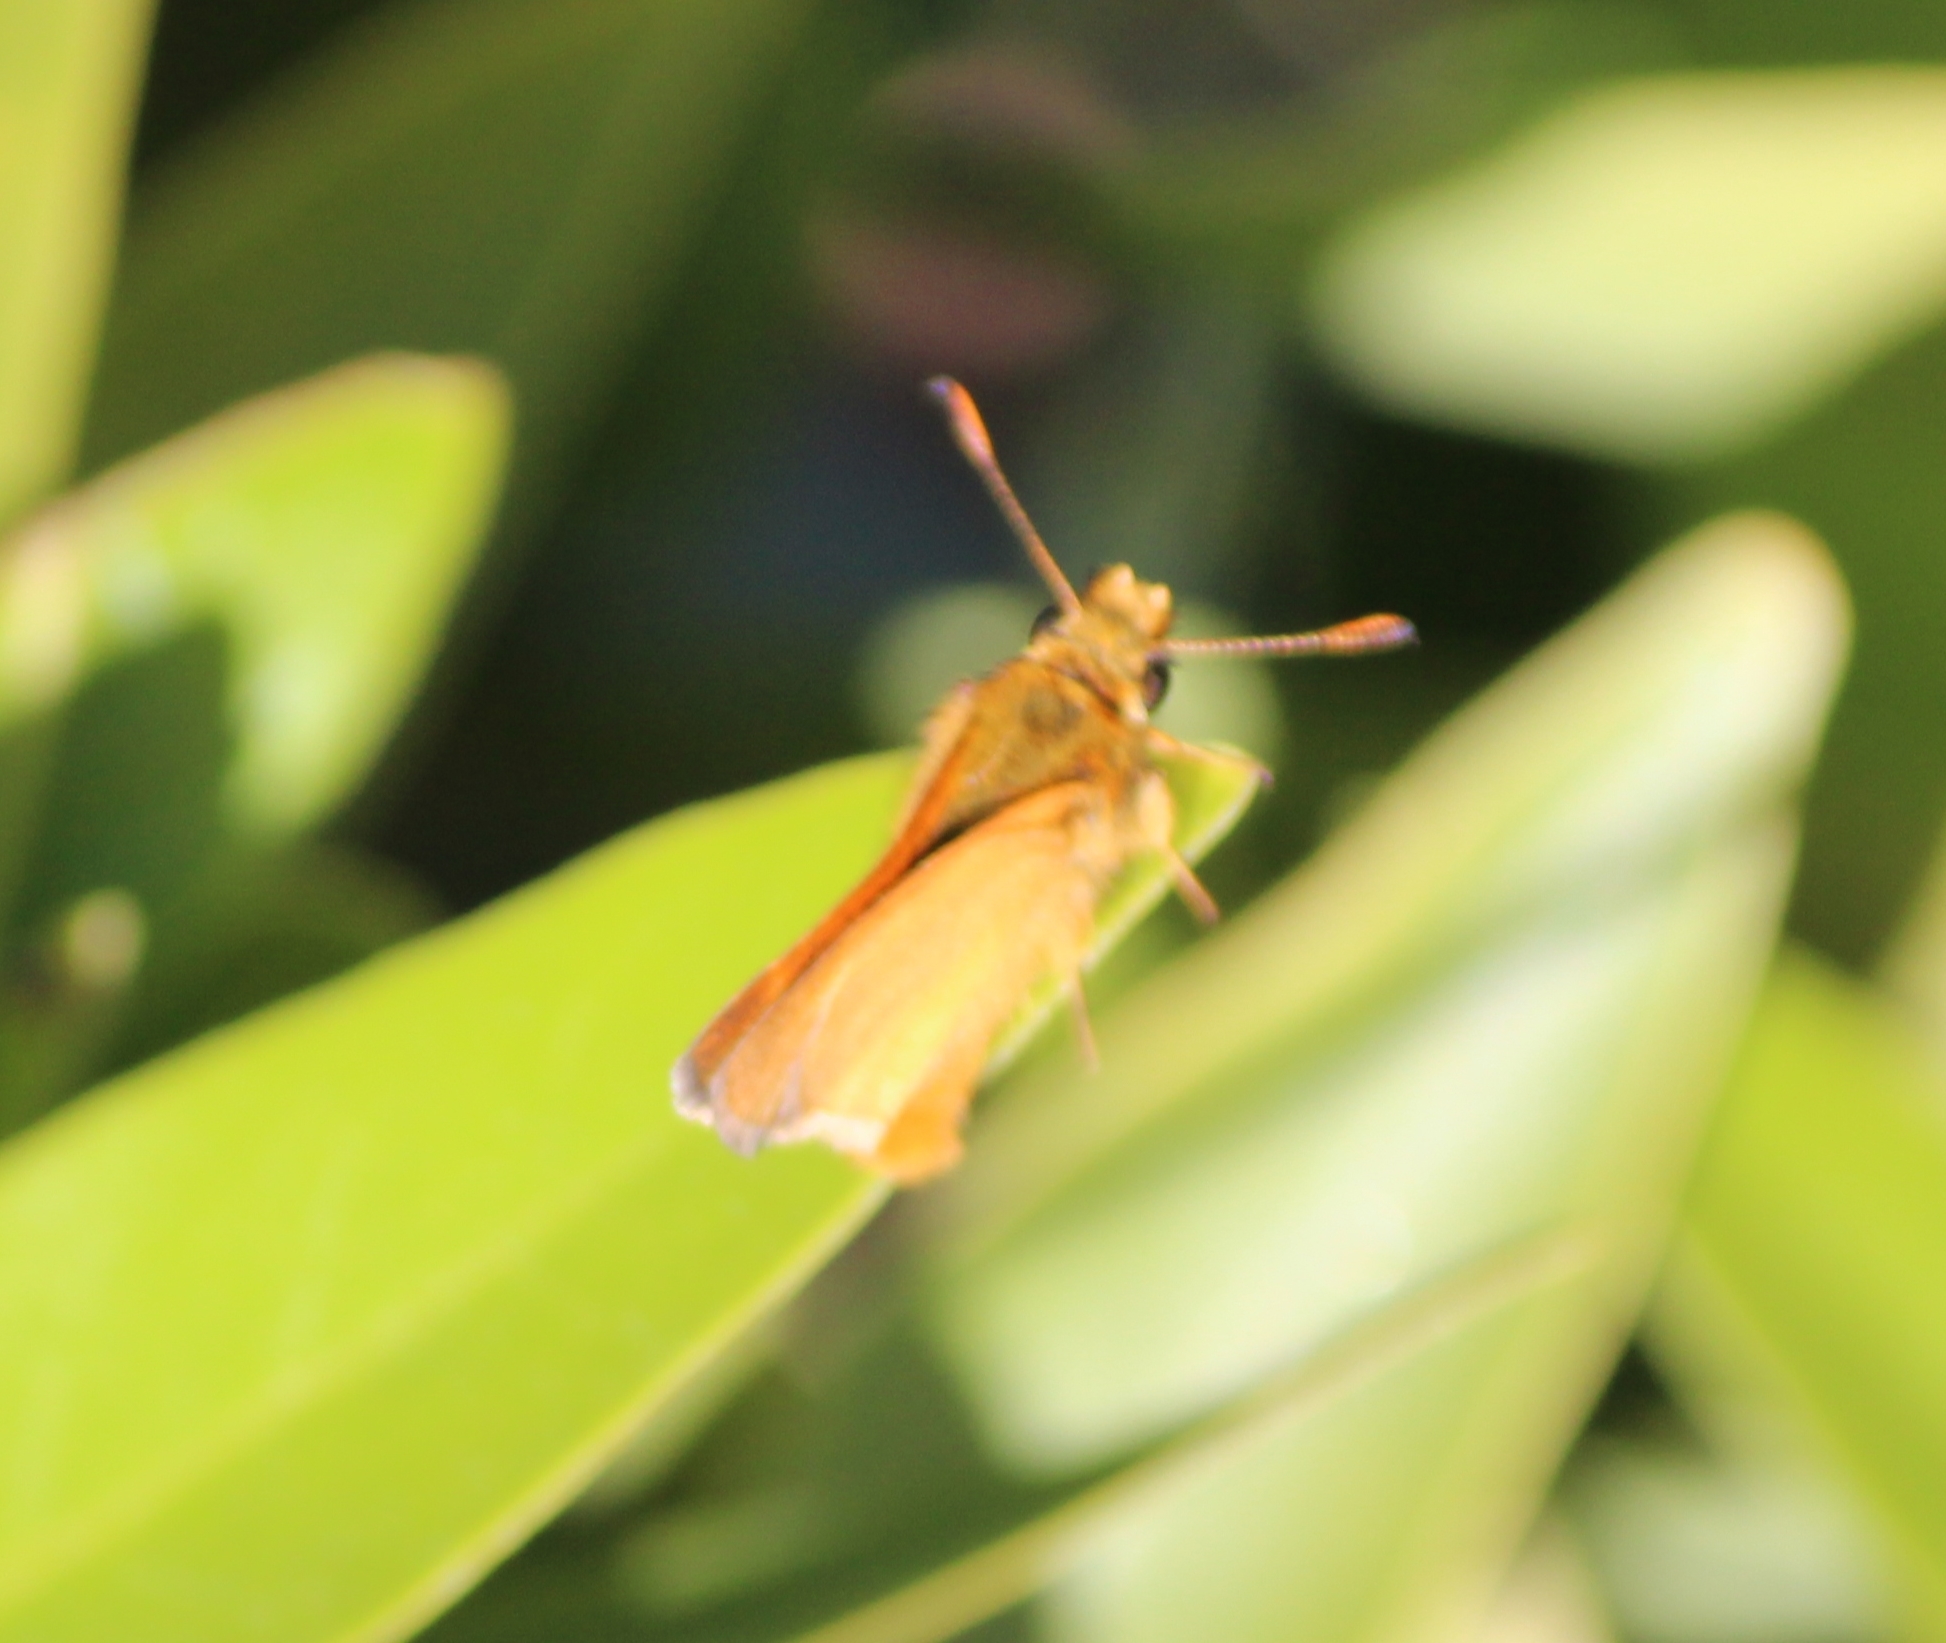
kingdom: Animalia
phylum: Arthropoda
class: Insecta
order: Lepidoptera
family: Hesperiidae
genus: Ochlodes
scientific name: Ochlodes agricola
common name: Rural skipper
